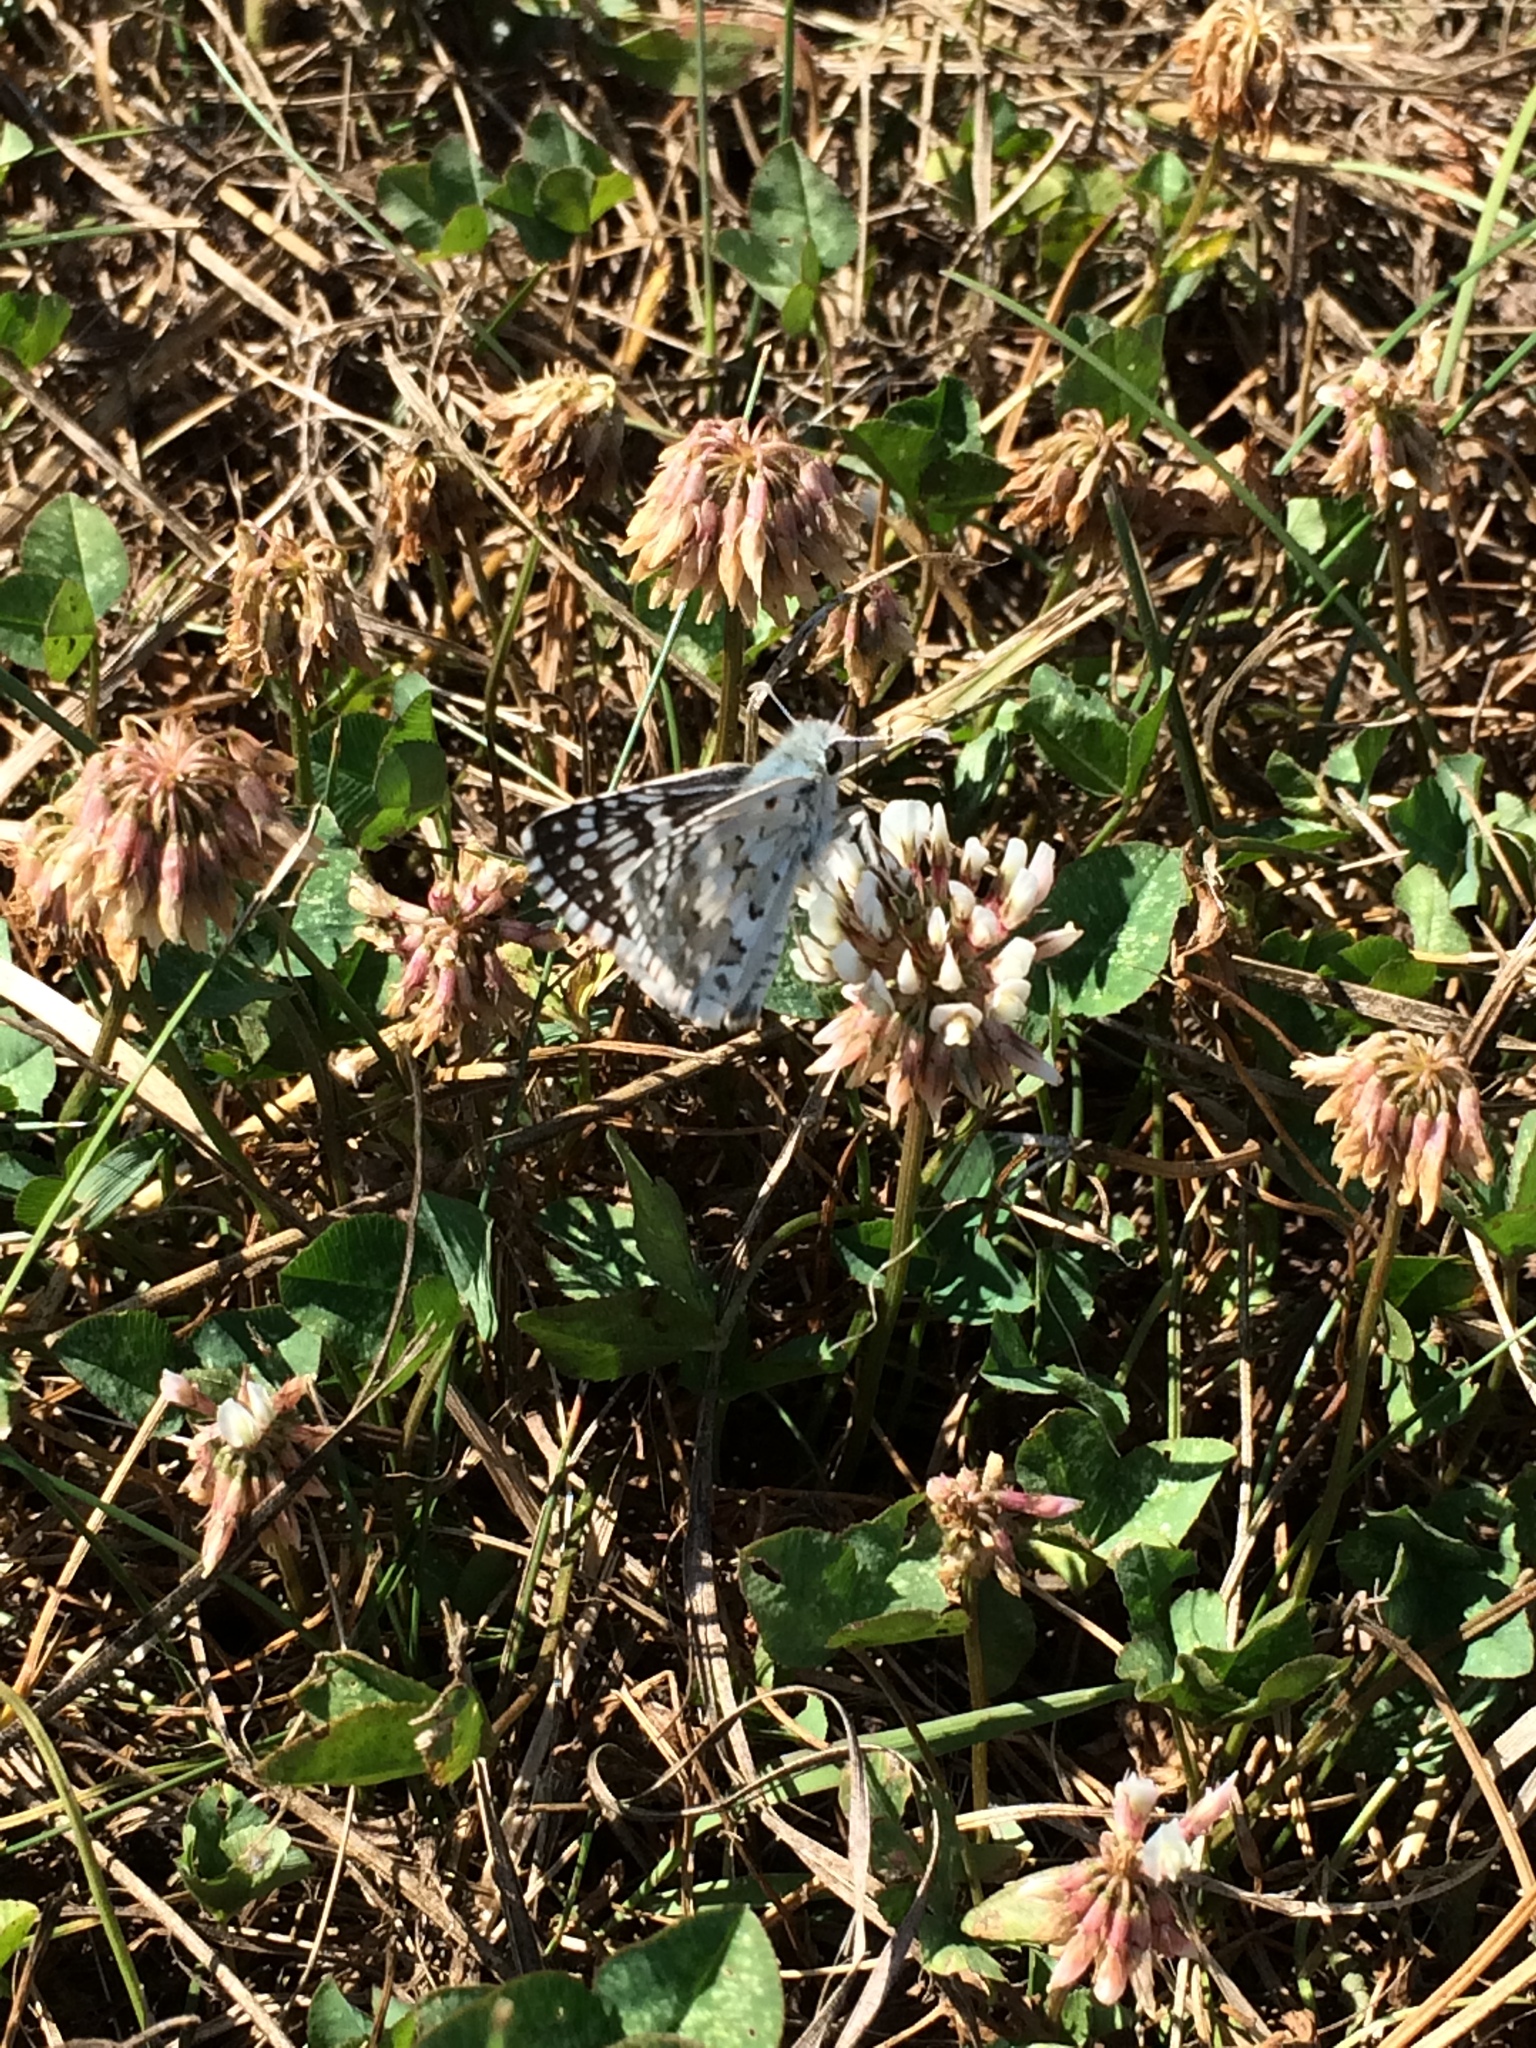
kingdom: Animalia
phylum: Arthropoda
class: Insecta
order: Lepidoptera
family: Hesperiidae
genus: Burnsius
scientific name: Burnsius communis
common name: Common checkered-skipper
